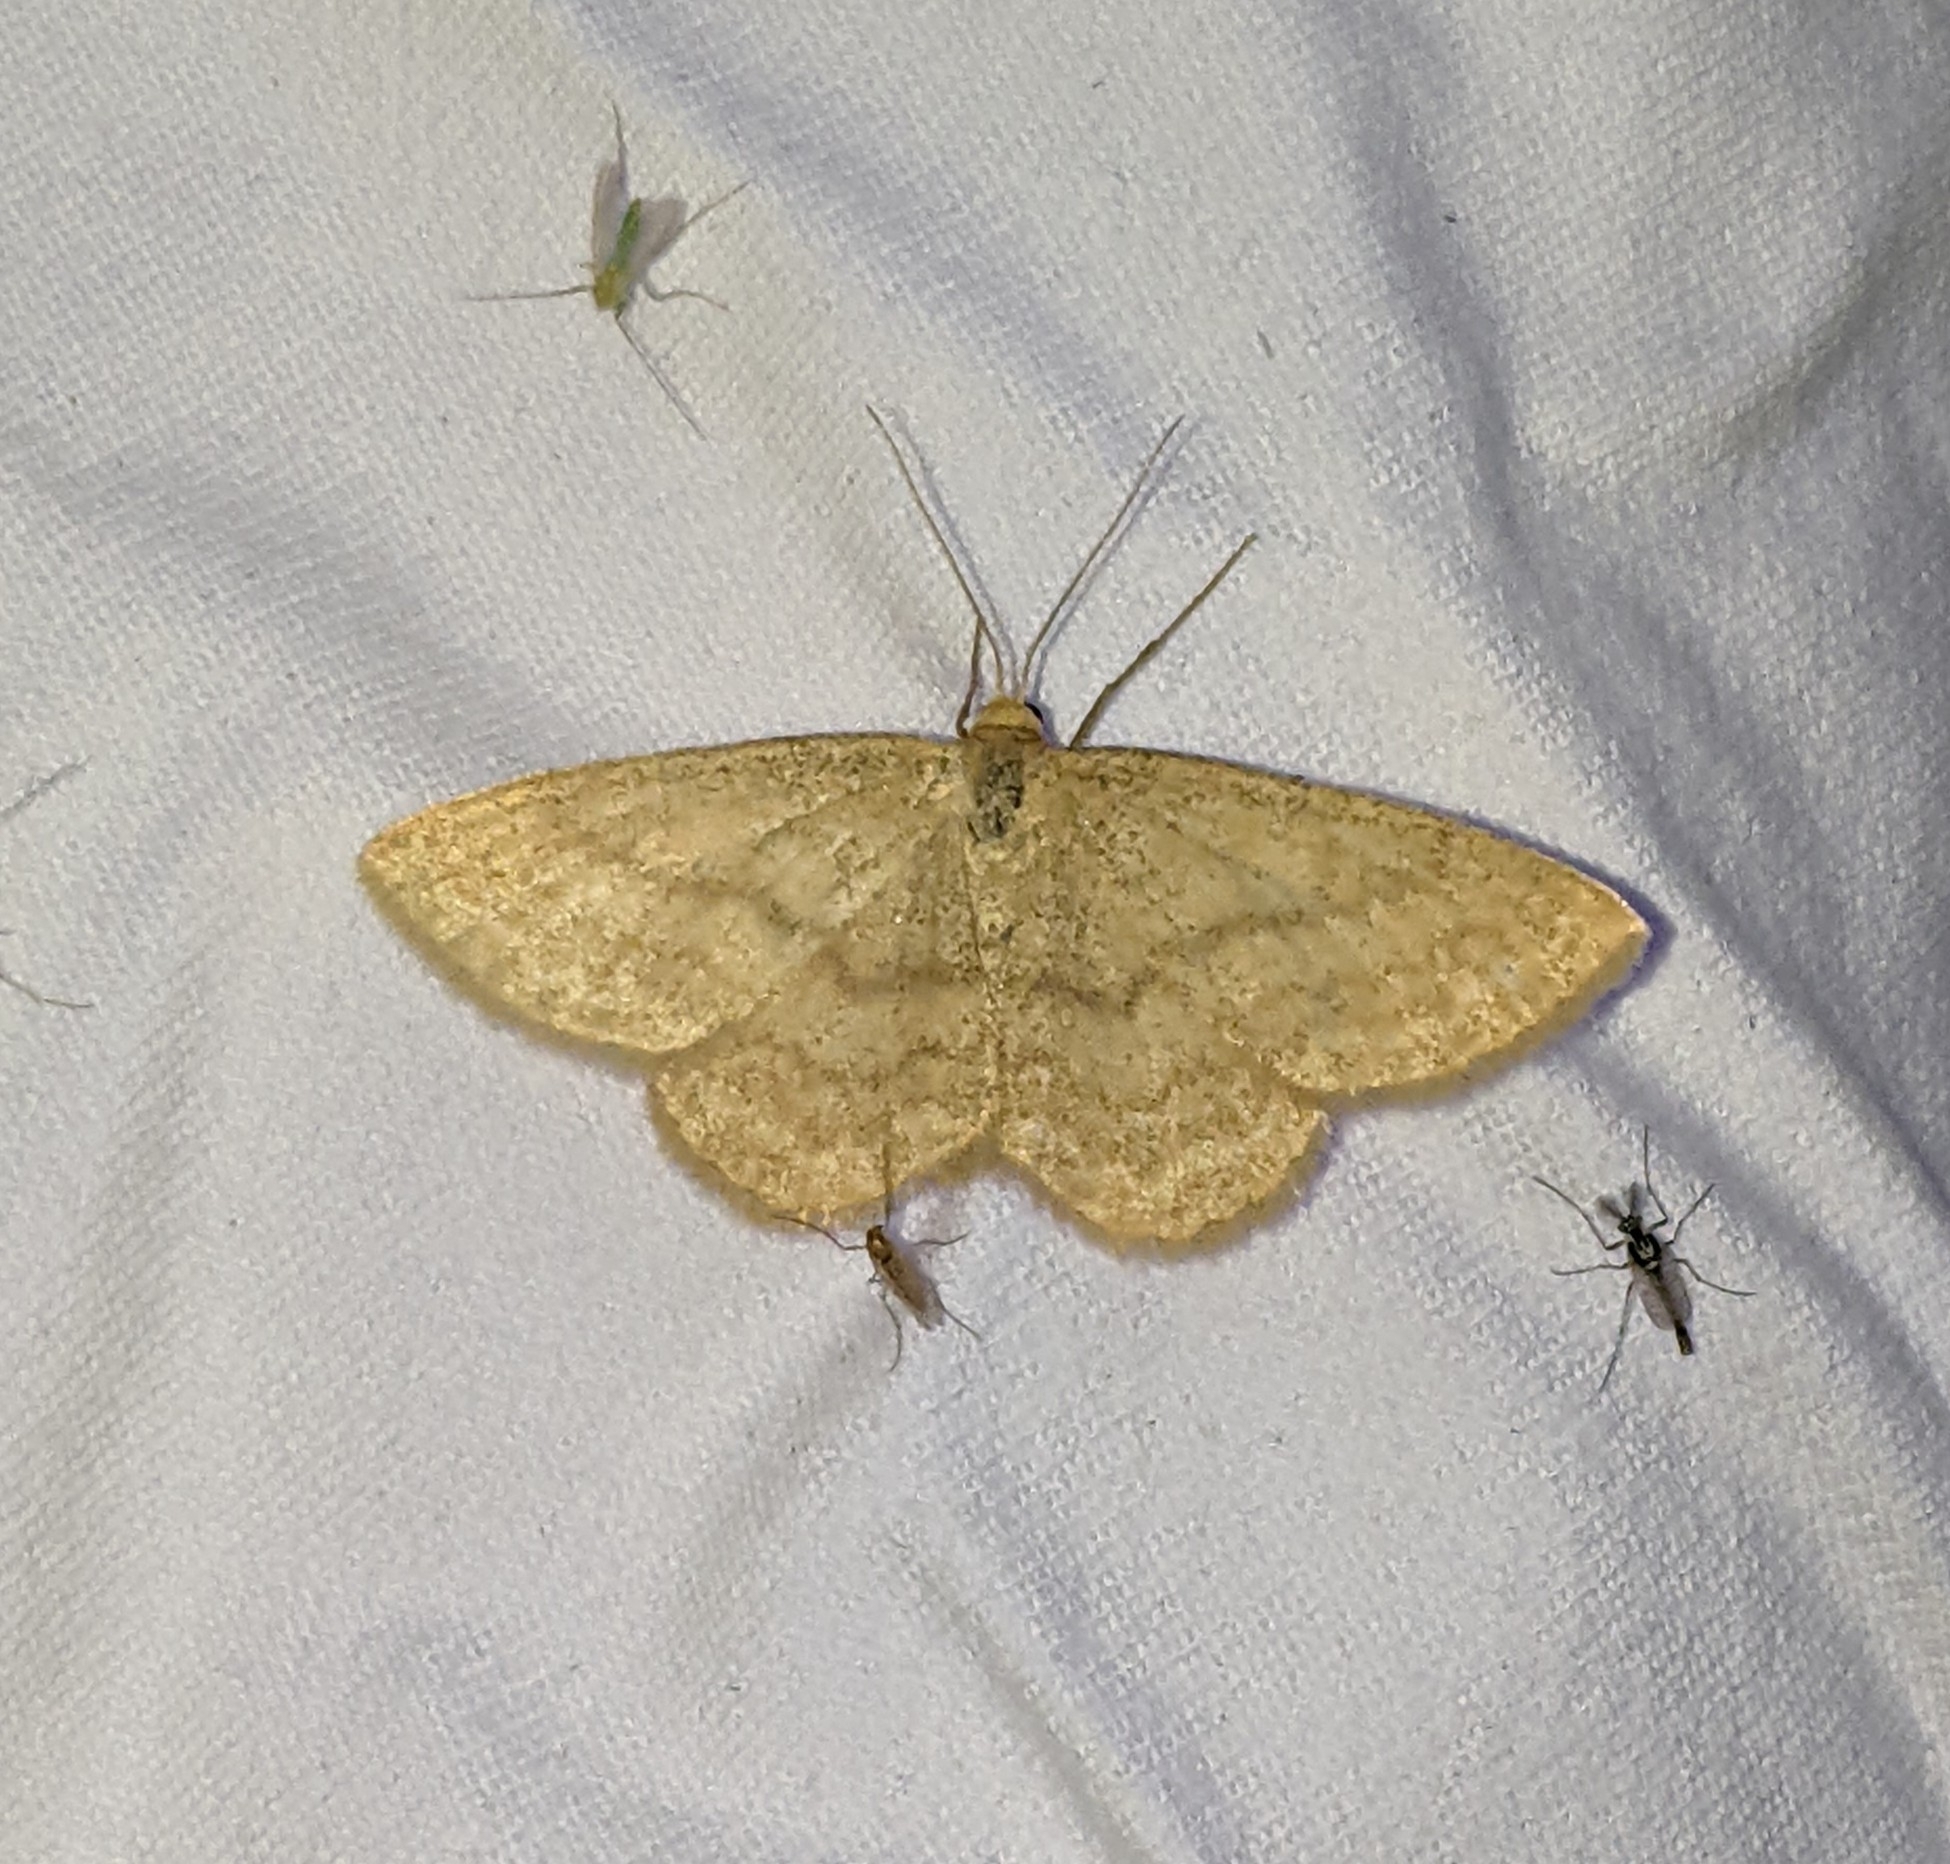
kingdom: Animalia
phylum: Arthropoda
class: Insecta
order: Lepidoptera
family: Geometridae
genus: Scopula
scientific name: Scopula luteolata
